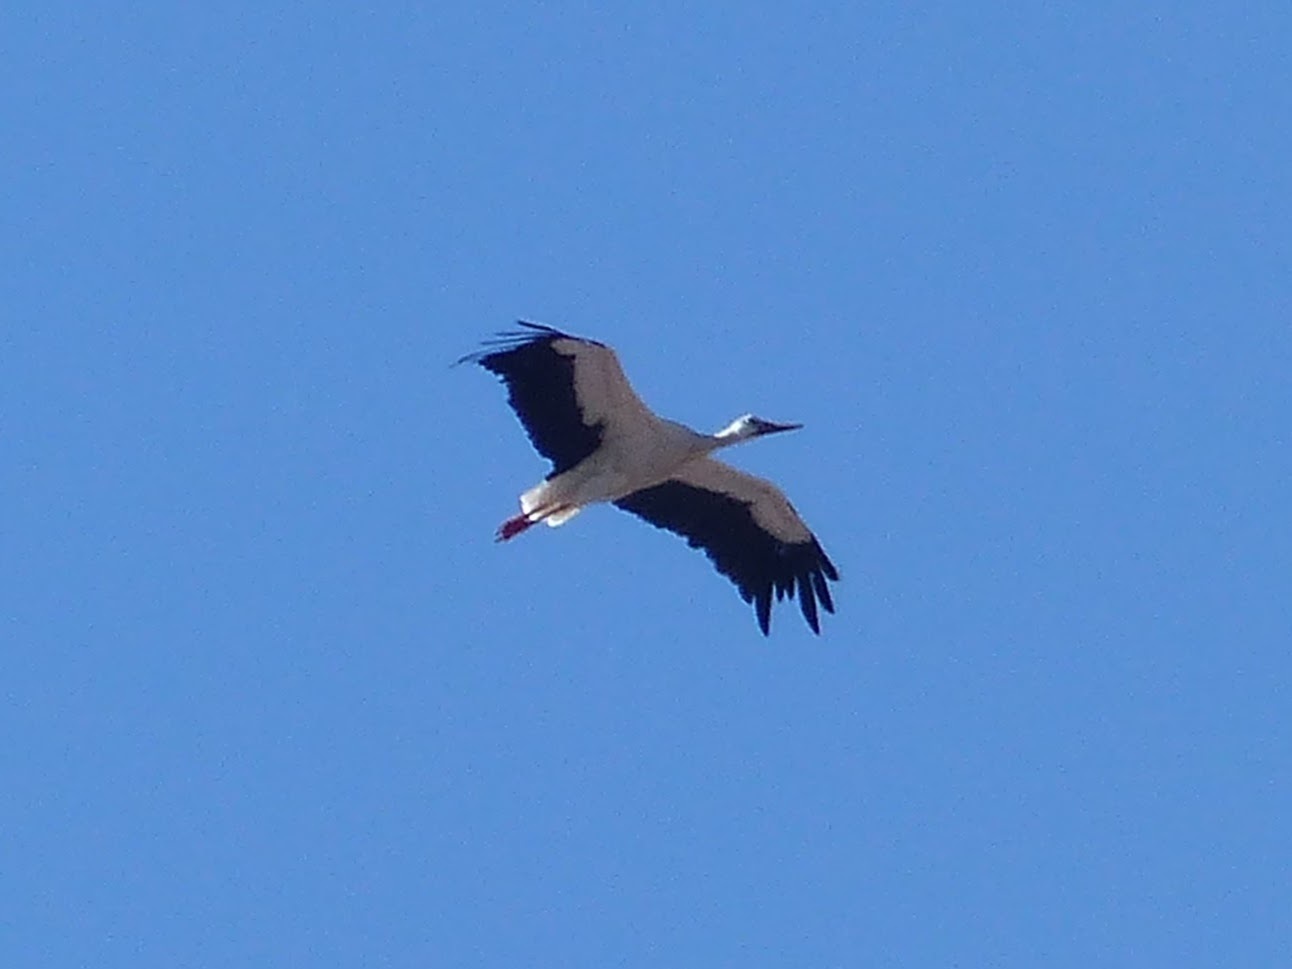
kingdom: Animalia
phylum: Chordata
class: Aves
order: Ciconiiformes
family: Ciconiidae
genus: Ciconia
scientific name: Ciconia ciconia
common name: White stork
